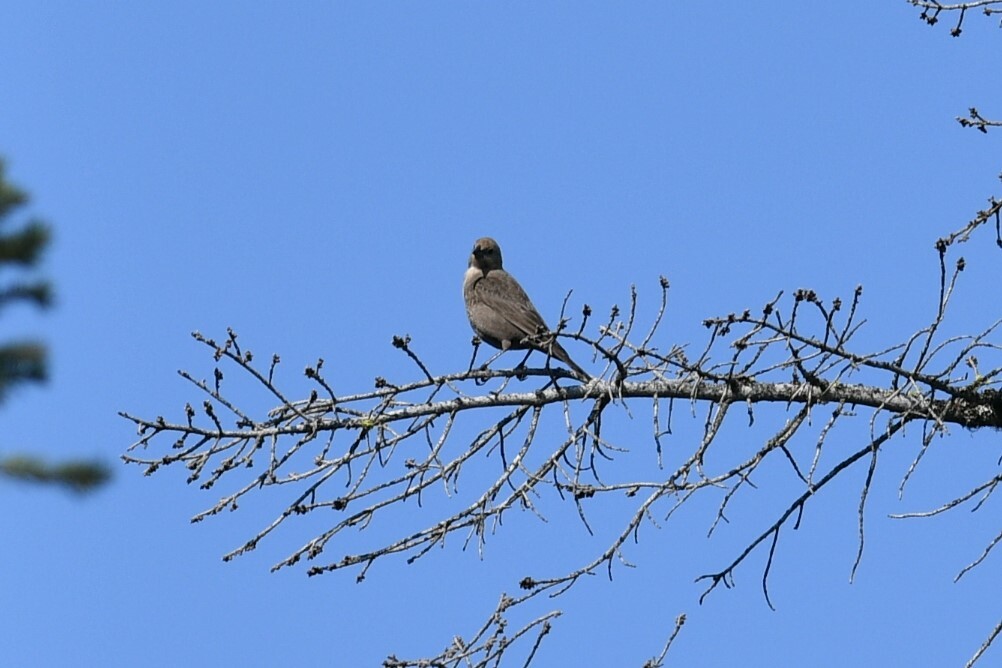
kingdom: Animalia
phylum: Chordata
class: Aves
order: Passeriformes
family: Icteridae
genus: Molothrus
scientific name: Molothrus ater
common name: Brown-headed cowbird
